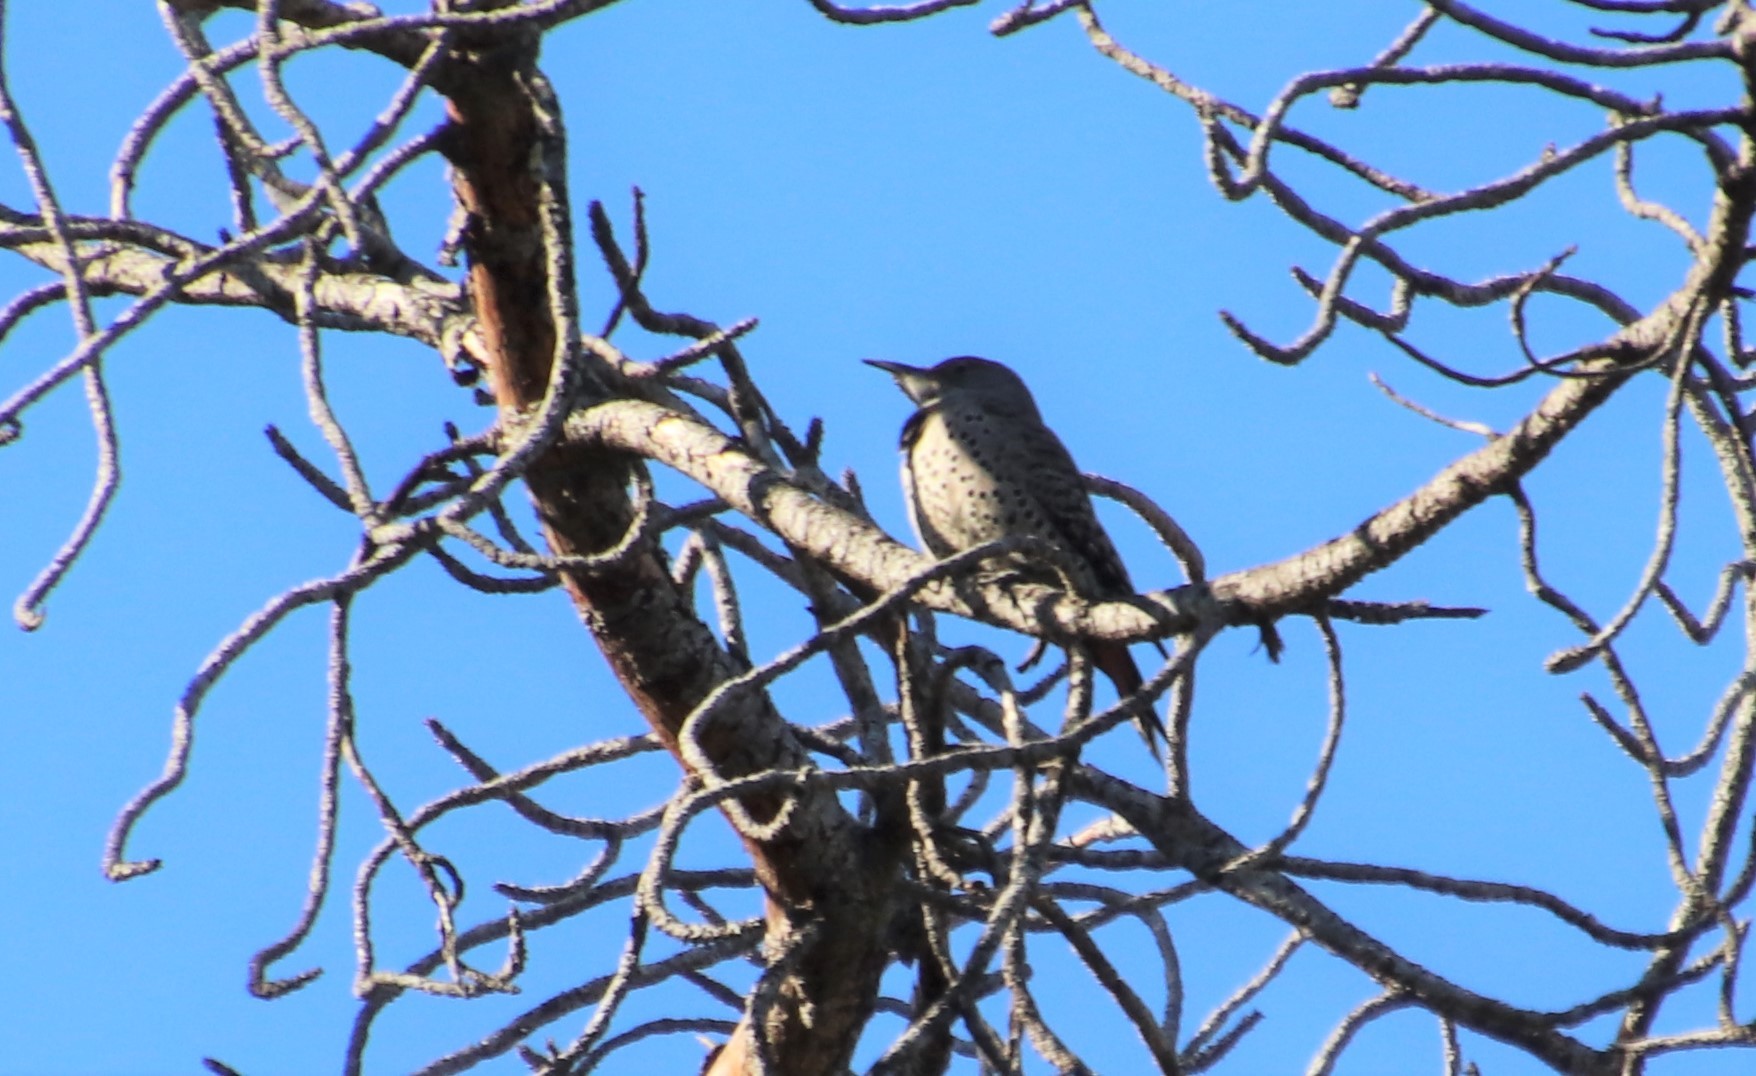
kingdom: Animalia
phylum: Chordata
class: Aves
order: Piciformes
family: Picidae
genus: Colaptes
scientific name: Colaptes auratus
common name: Northern flicker
